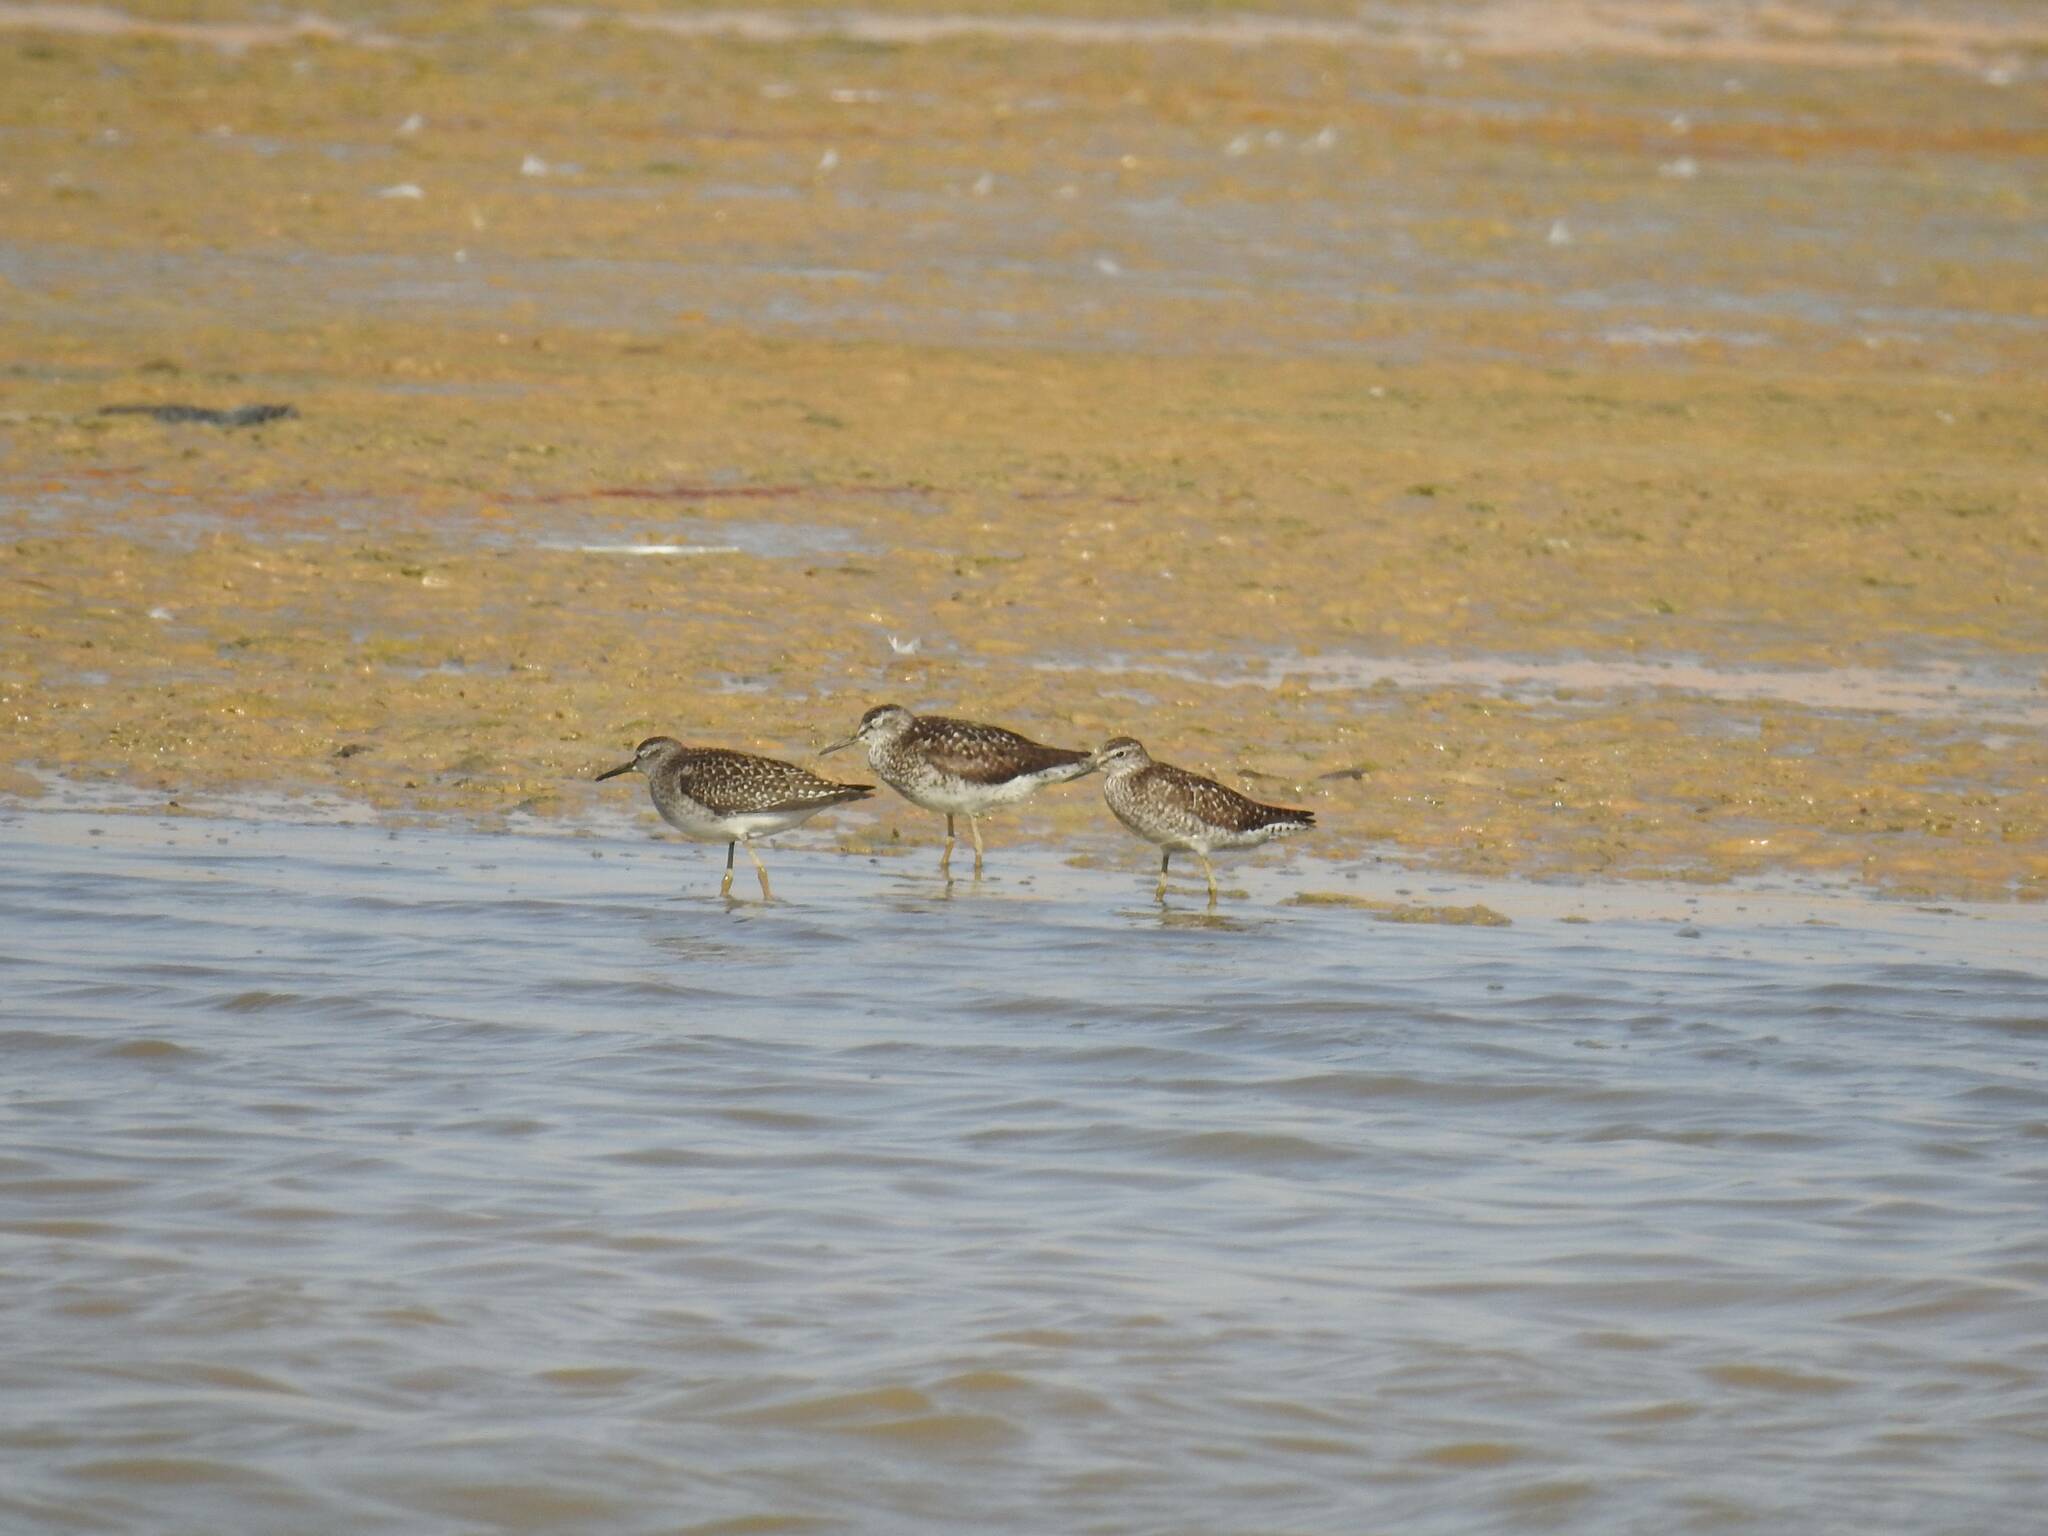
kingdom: Animalia
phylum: Chordata
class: Aves
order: Charadriiformes
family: Scolopacidae
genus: Tringa
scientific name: Tringa glareola
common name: Wood sandpiper
